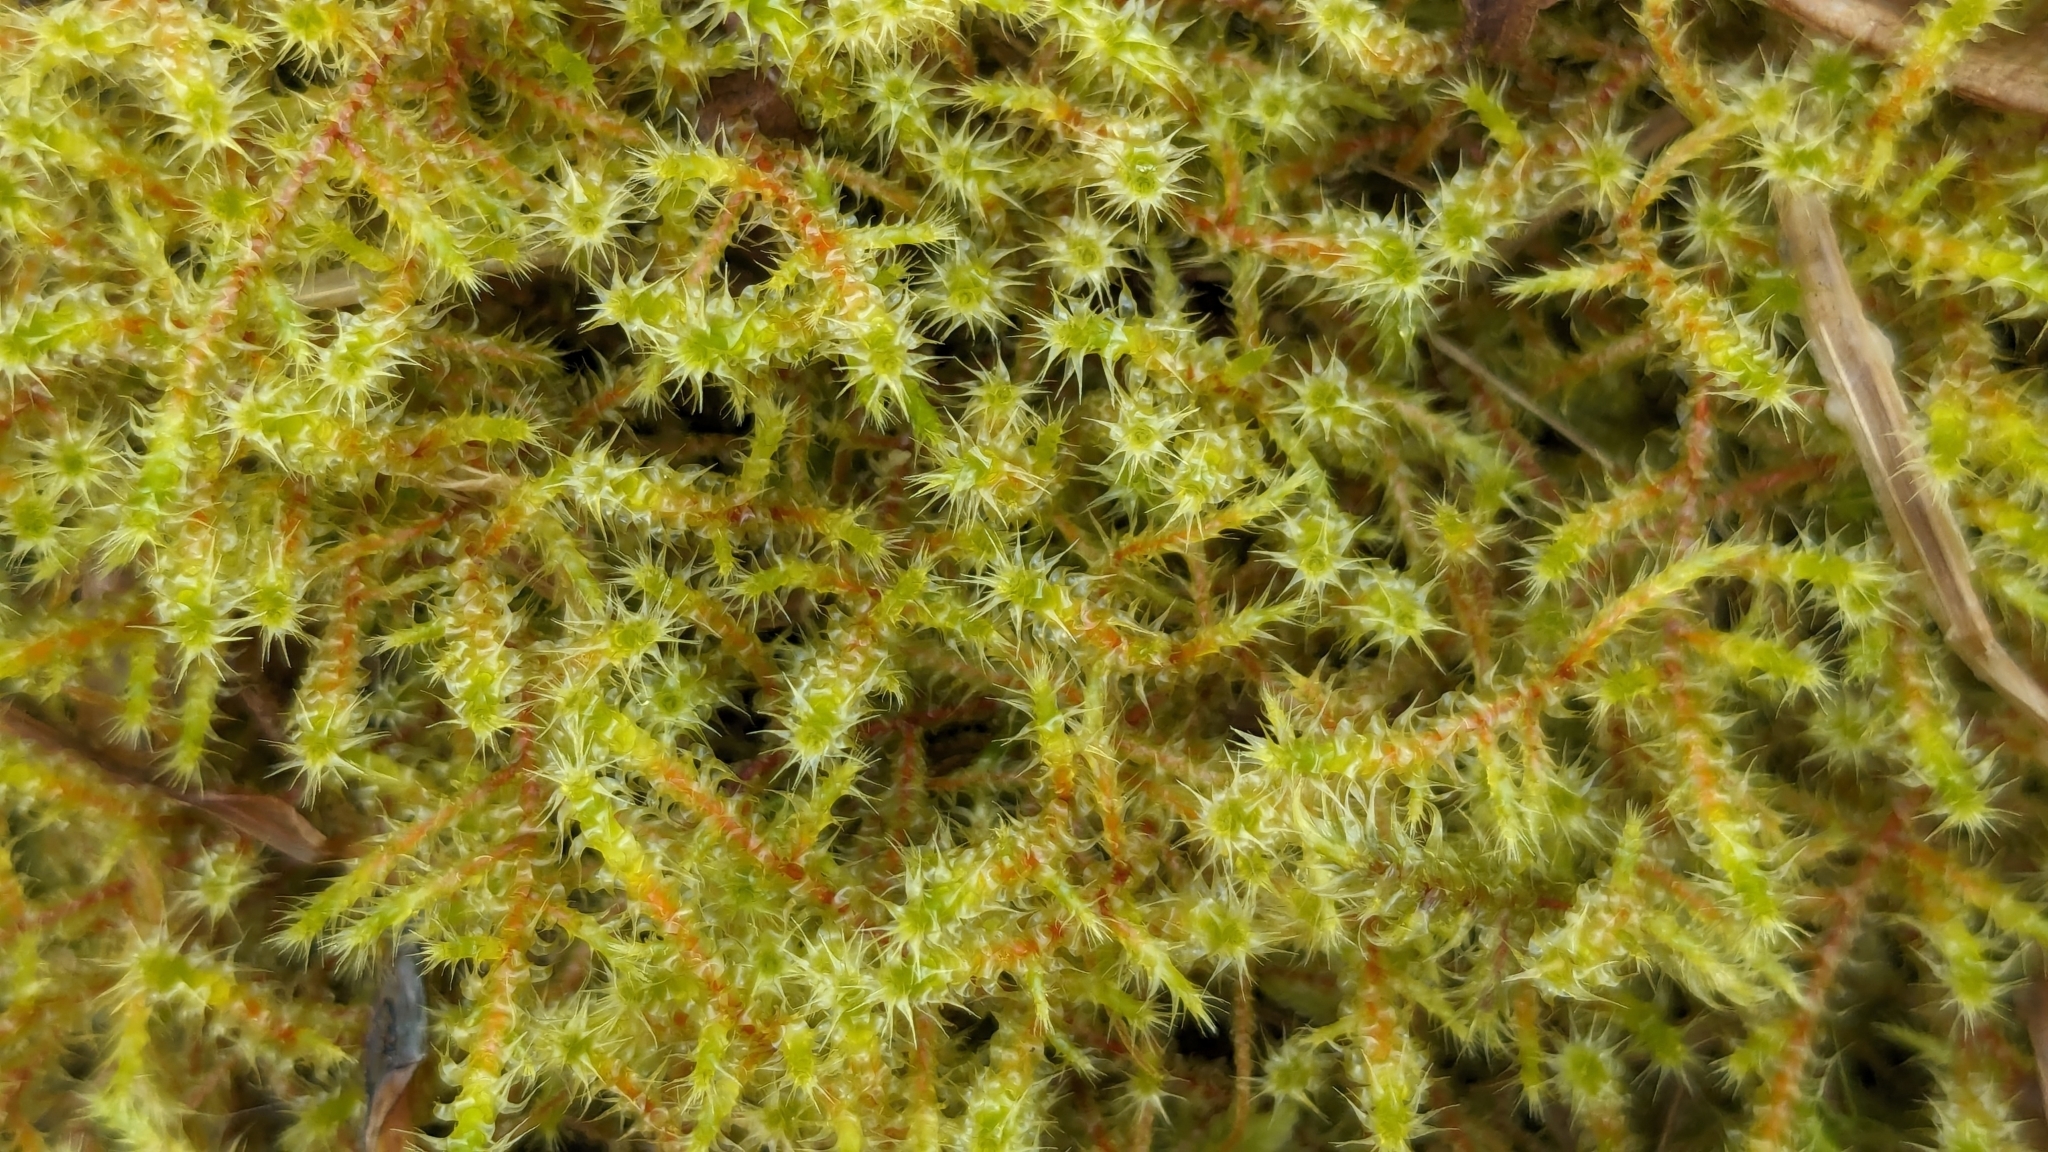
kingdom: Plantae
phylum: Bryophyta
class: Bryopsida
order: Hypnales
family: Hylocomiaceae
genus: Rhytidiadelphus
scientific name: Rhytidiadelphus squarrosus
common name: Springy turf-moss
